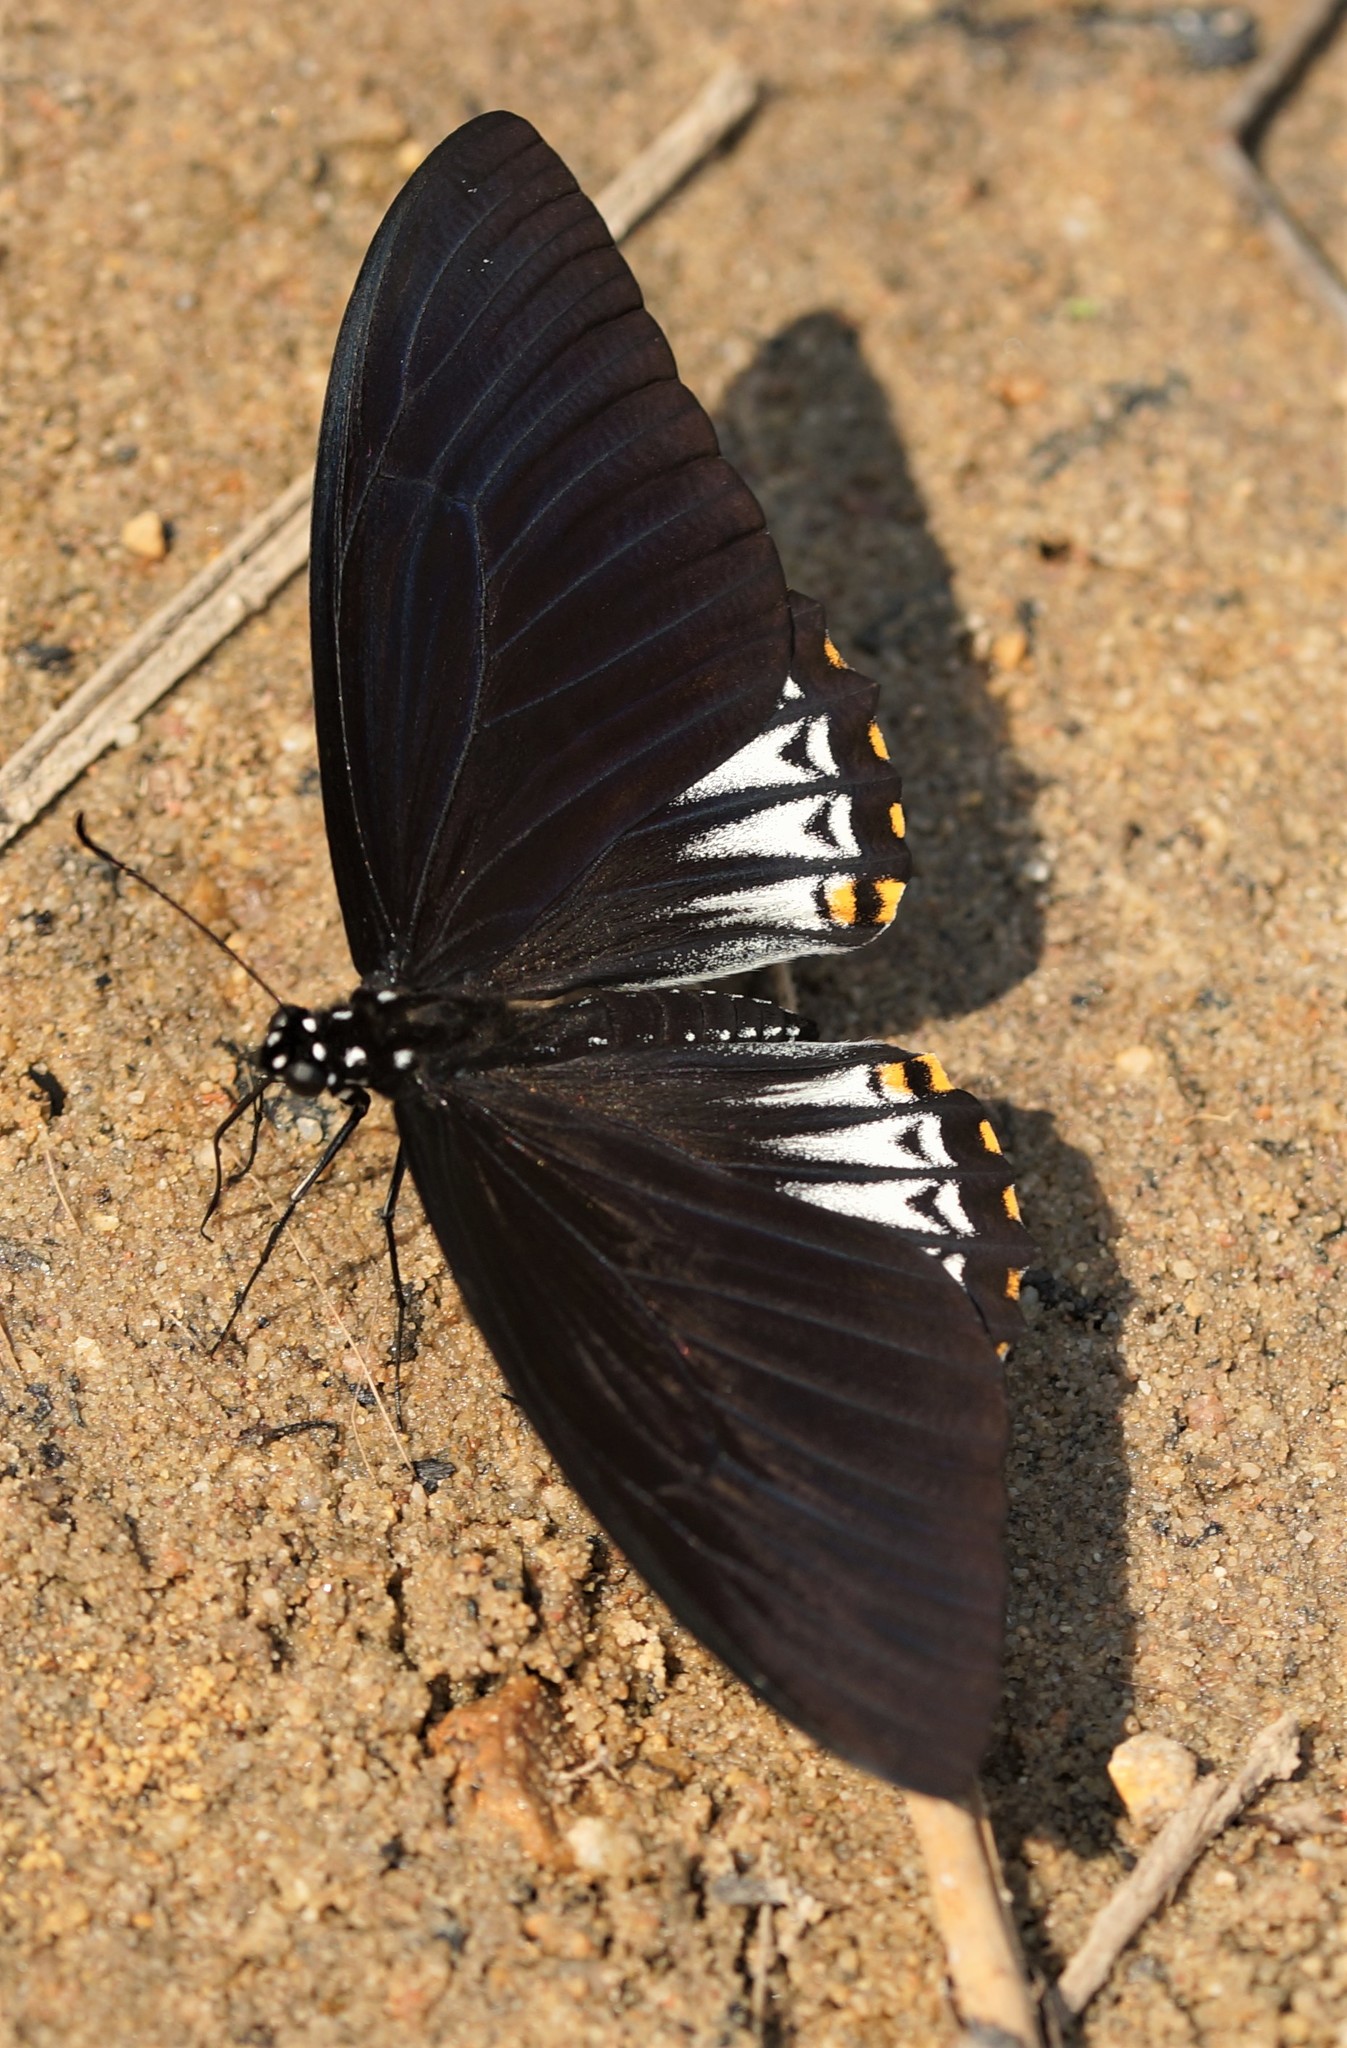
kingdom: Animalia
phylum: Arthropoda
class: Insecta
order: Lepidoptera
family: Papilionidae
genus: Chilasa
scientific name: Chilasa clytia
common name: Common mime
